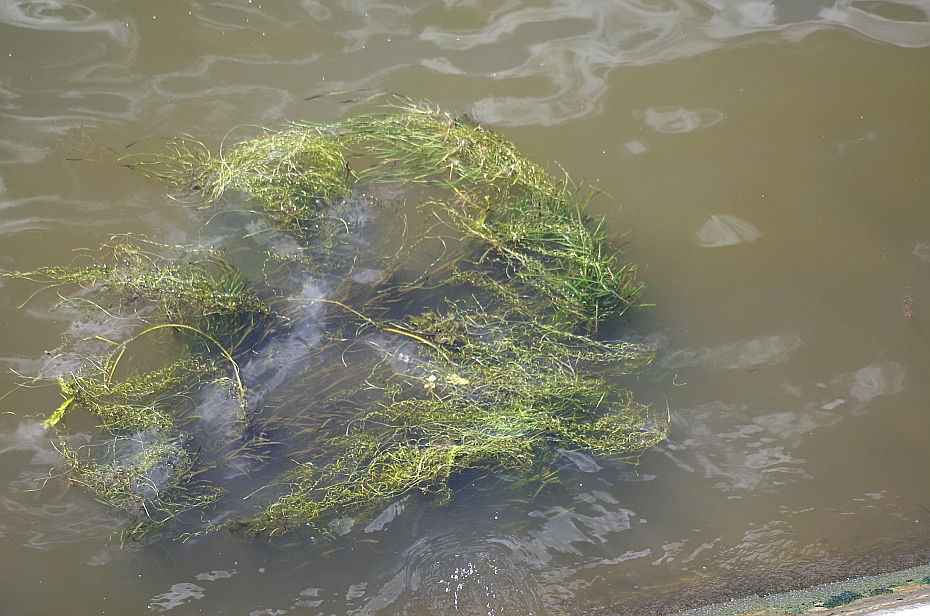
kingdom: Plantae
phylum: Tracheophyta
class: Liliopsida
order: Alismatales
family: Hydrocharitaceae
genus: Vallisneria
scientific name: Vallisneria spiralis
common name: Tapegrass
